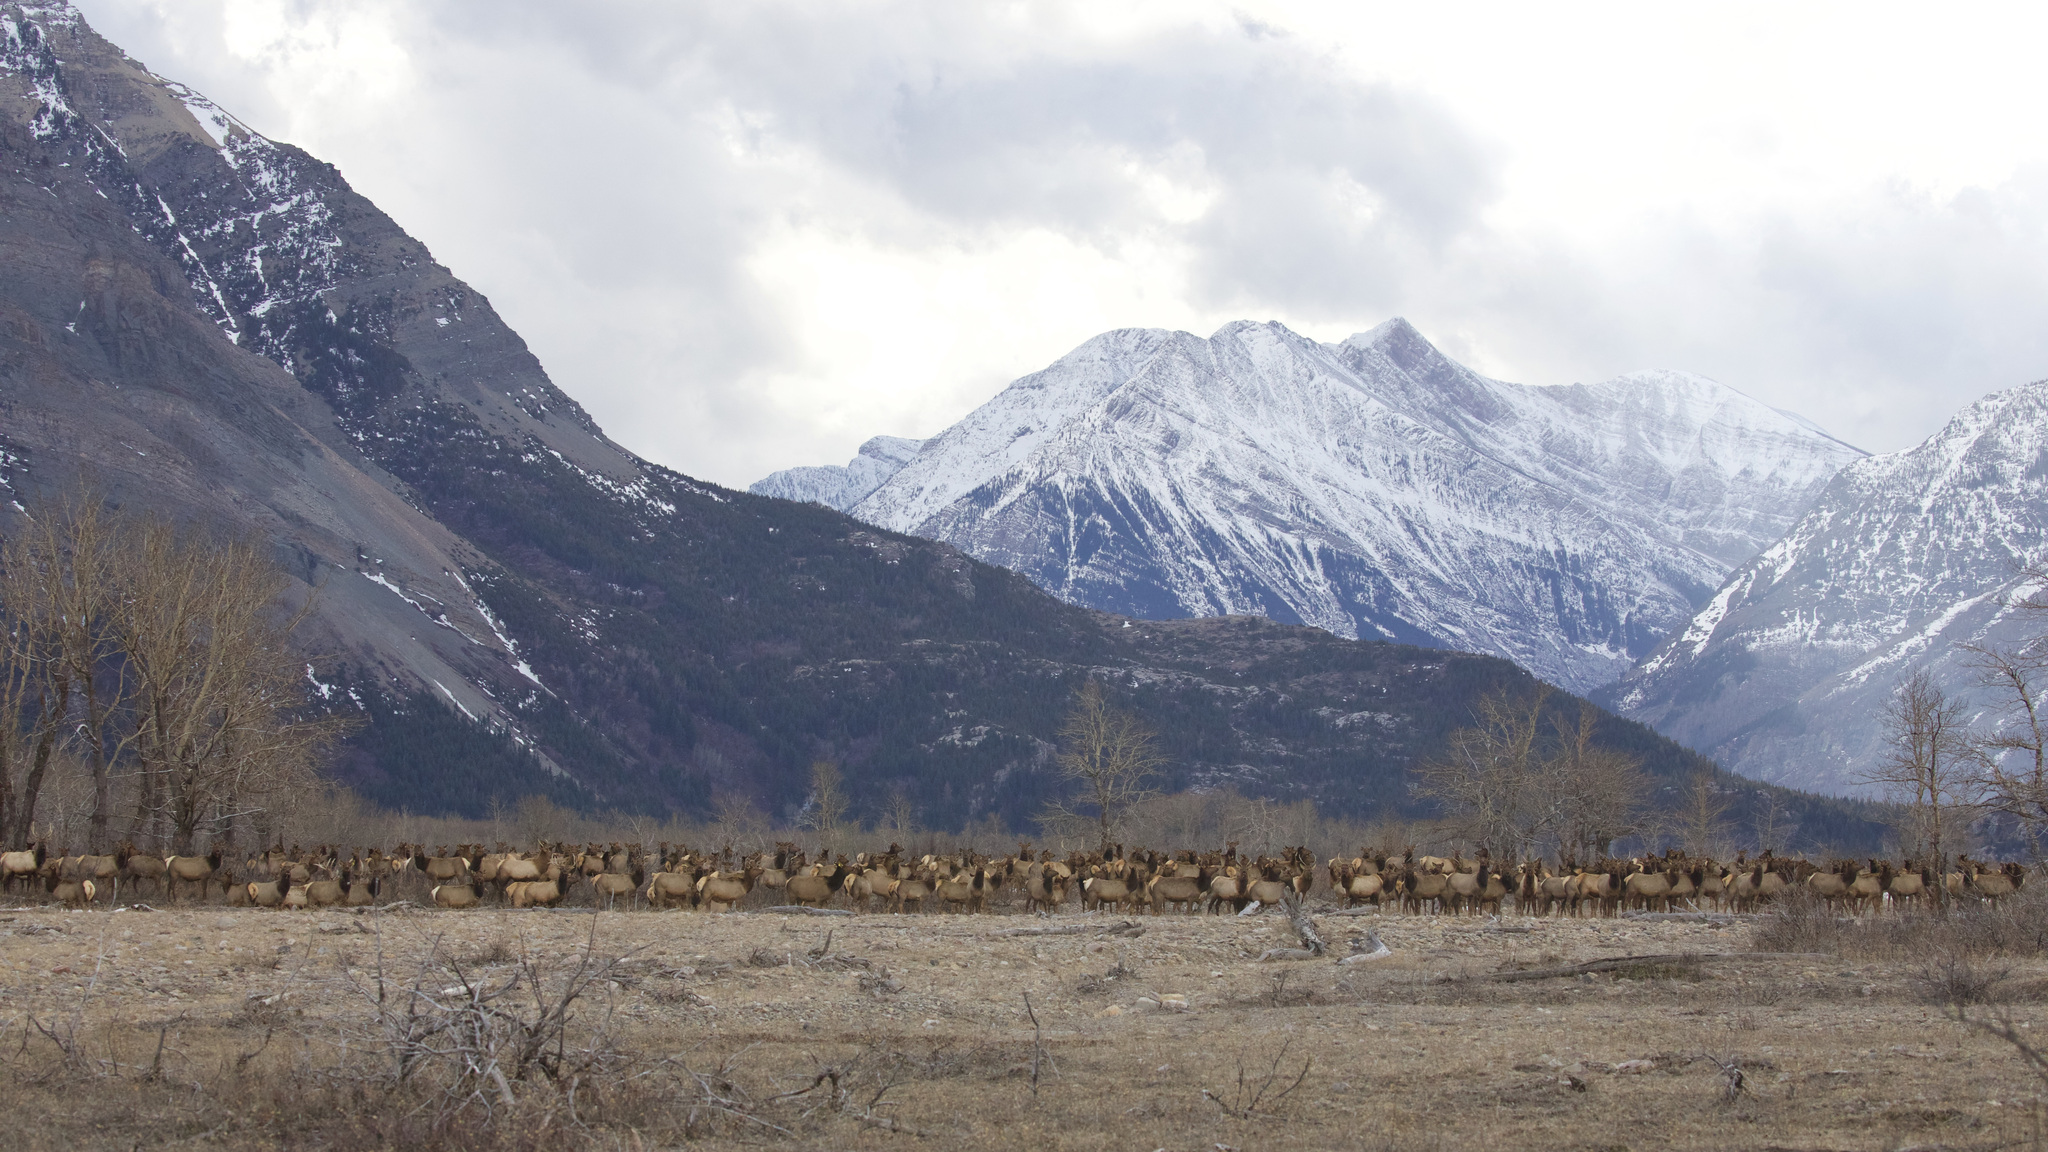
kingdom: Animalia
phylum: Chordata
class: Mammalia
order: Artiodactyla
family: Cervidae
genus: Cervus
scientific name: Cervus elaphus
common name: Red deer
